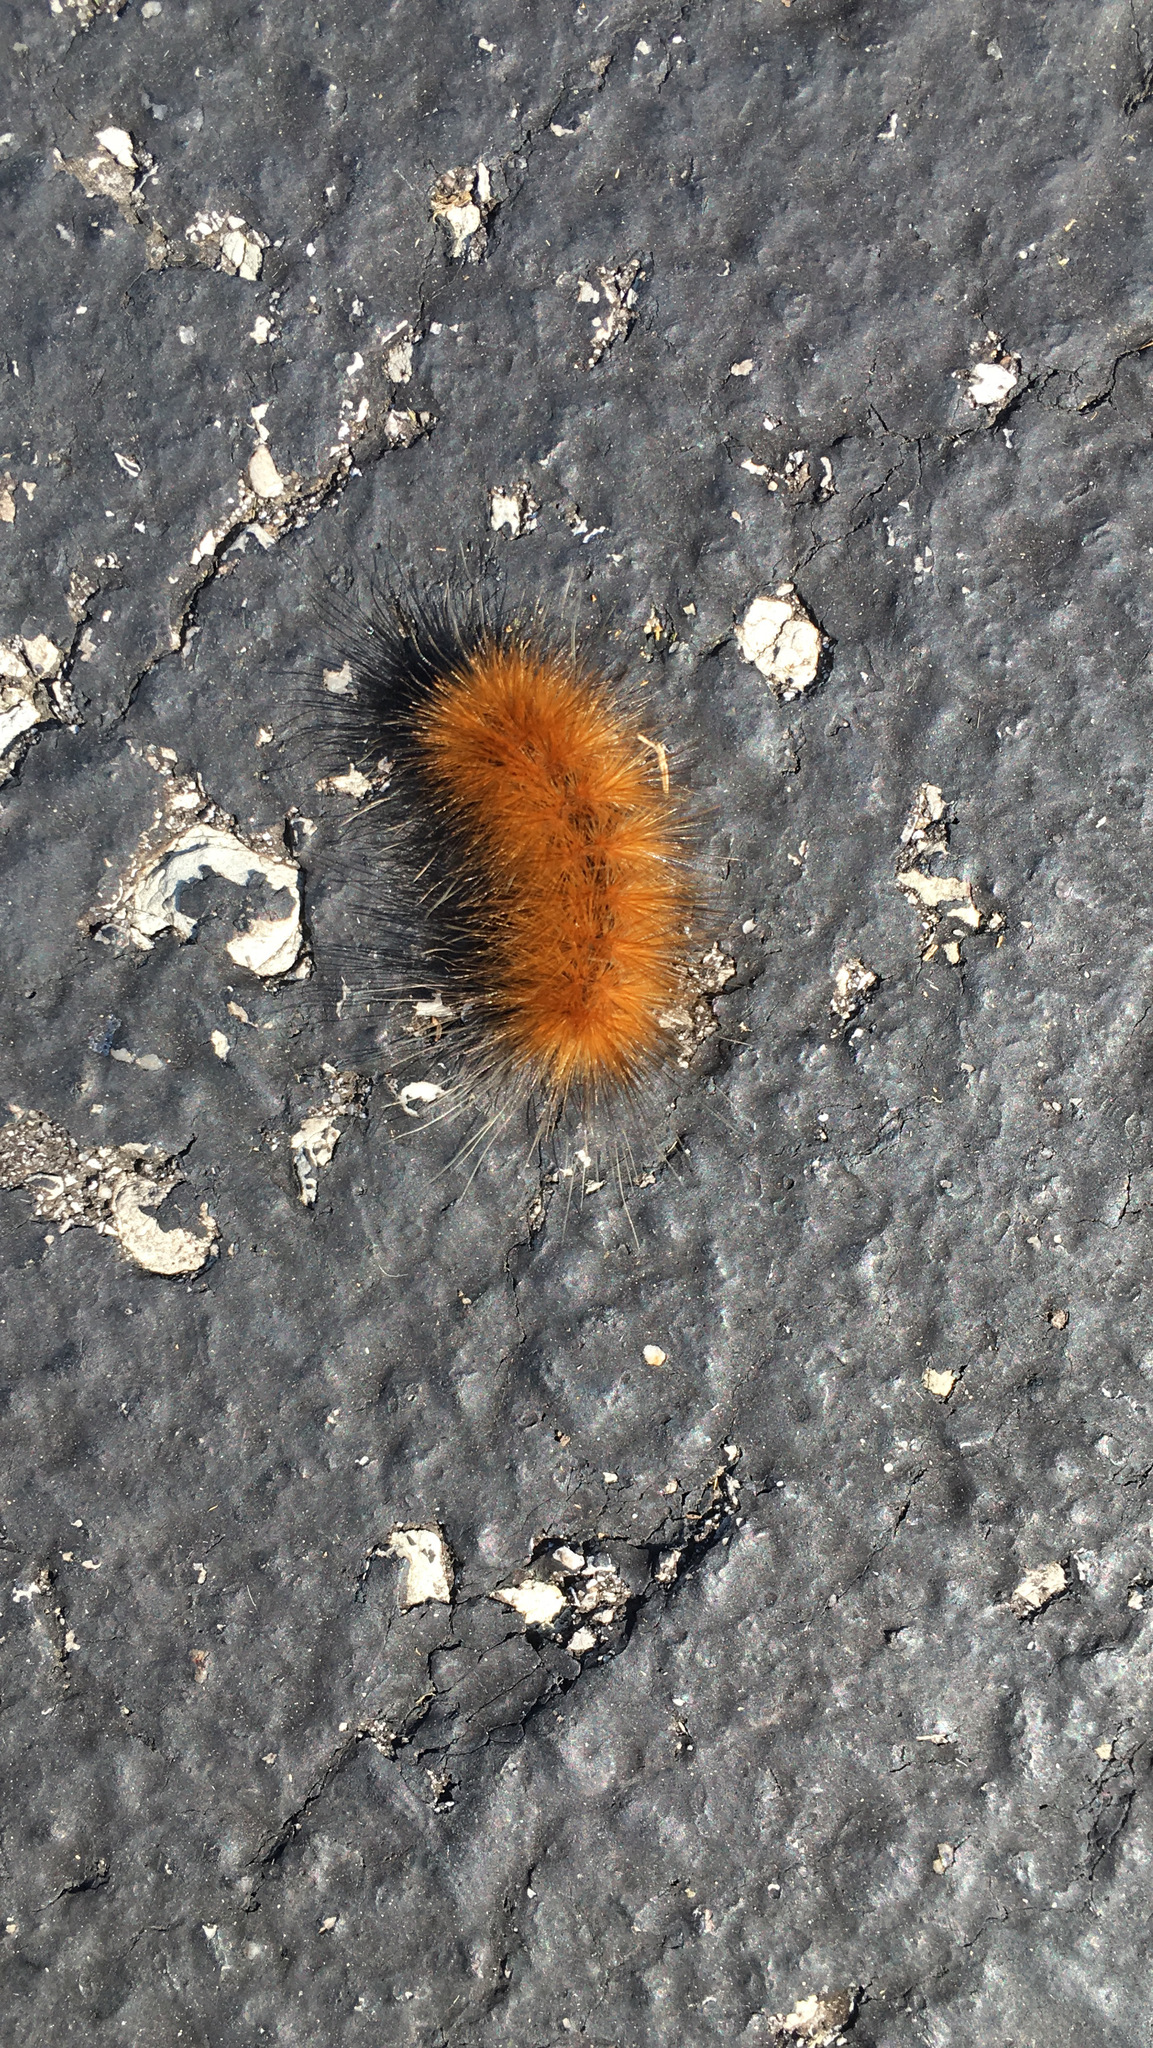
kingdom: Animalia
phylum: Arthropoda
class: Insecta
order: Lepidoptera
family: Erebidae
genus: Spilosoma
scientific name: Spilosoma virginica
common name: Virginia tiger moth
